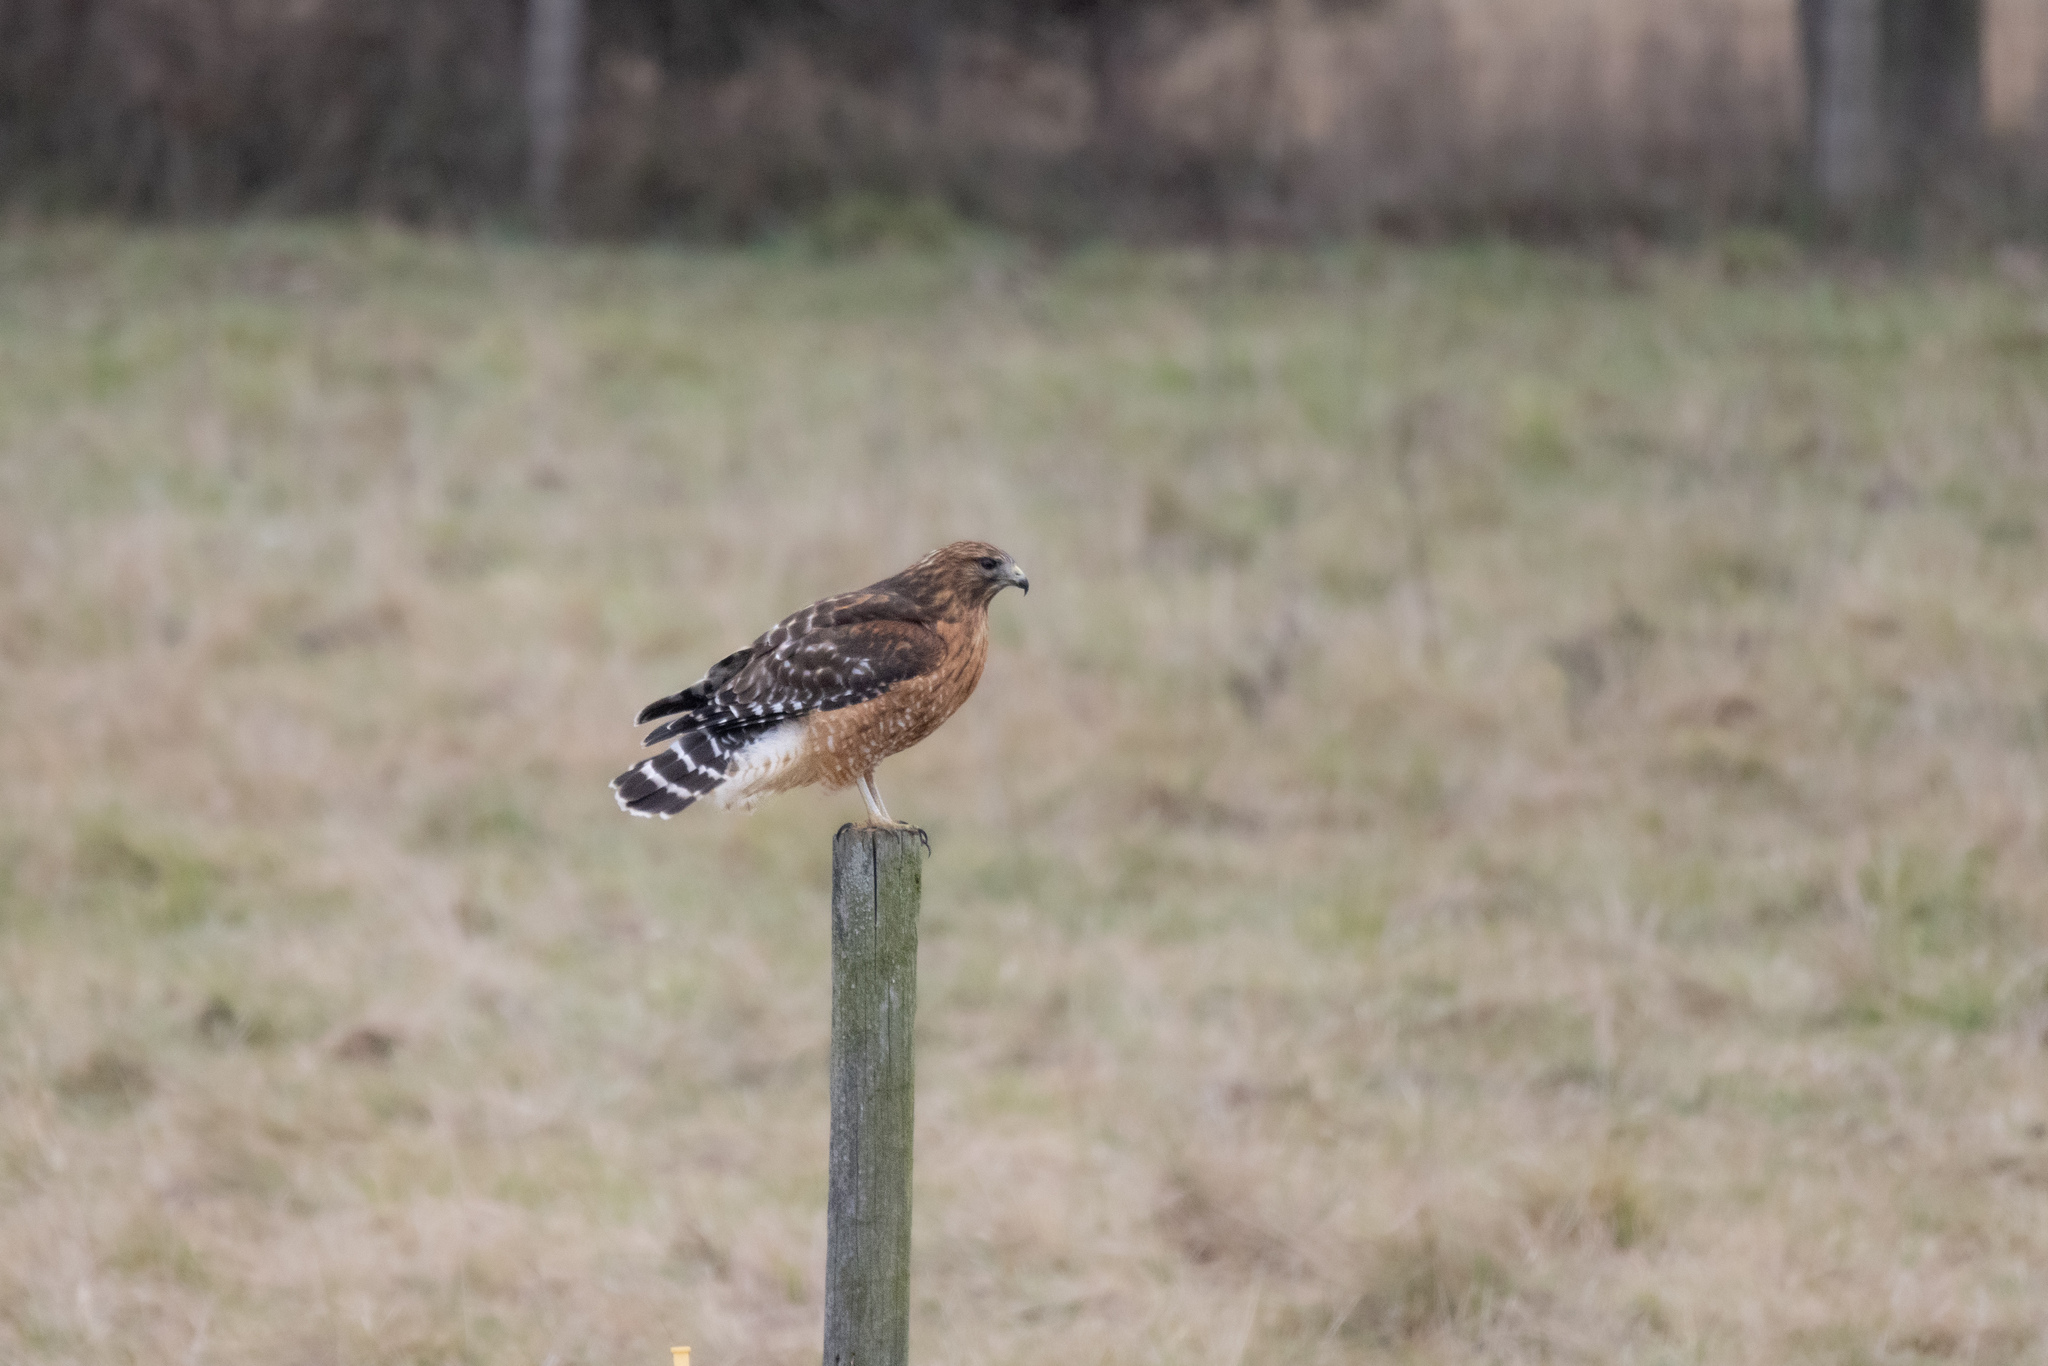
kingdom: Animalia
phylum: Chordata
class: Aves
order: Accipitriformes
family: Accipitridae
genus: Buteo
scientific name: Buteo lineatus
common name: Red-shouldered hawk
